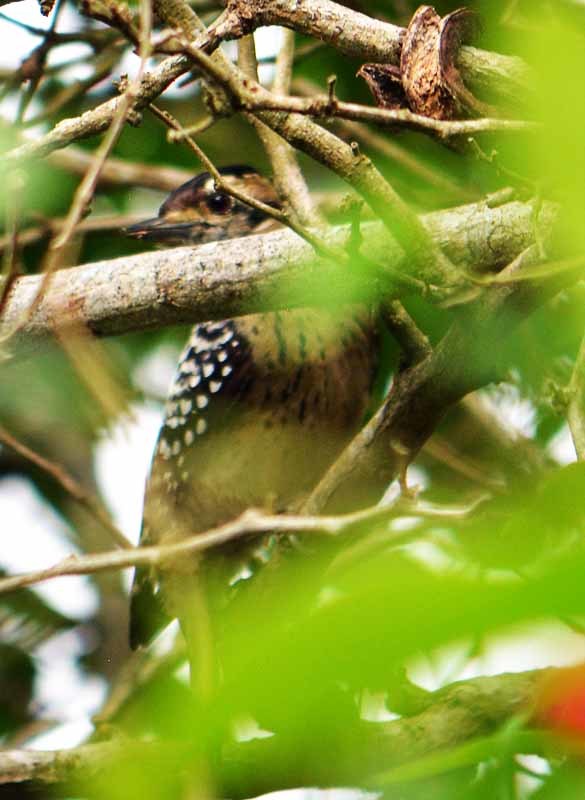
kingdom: Animalia
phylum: Chordata
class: Aves
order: Piciformes
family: Picidae
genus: Dryobates
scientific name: Dryobates scalaris
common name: Ladder-backed woodpecker
